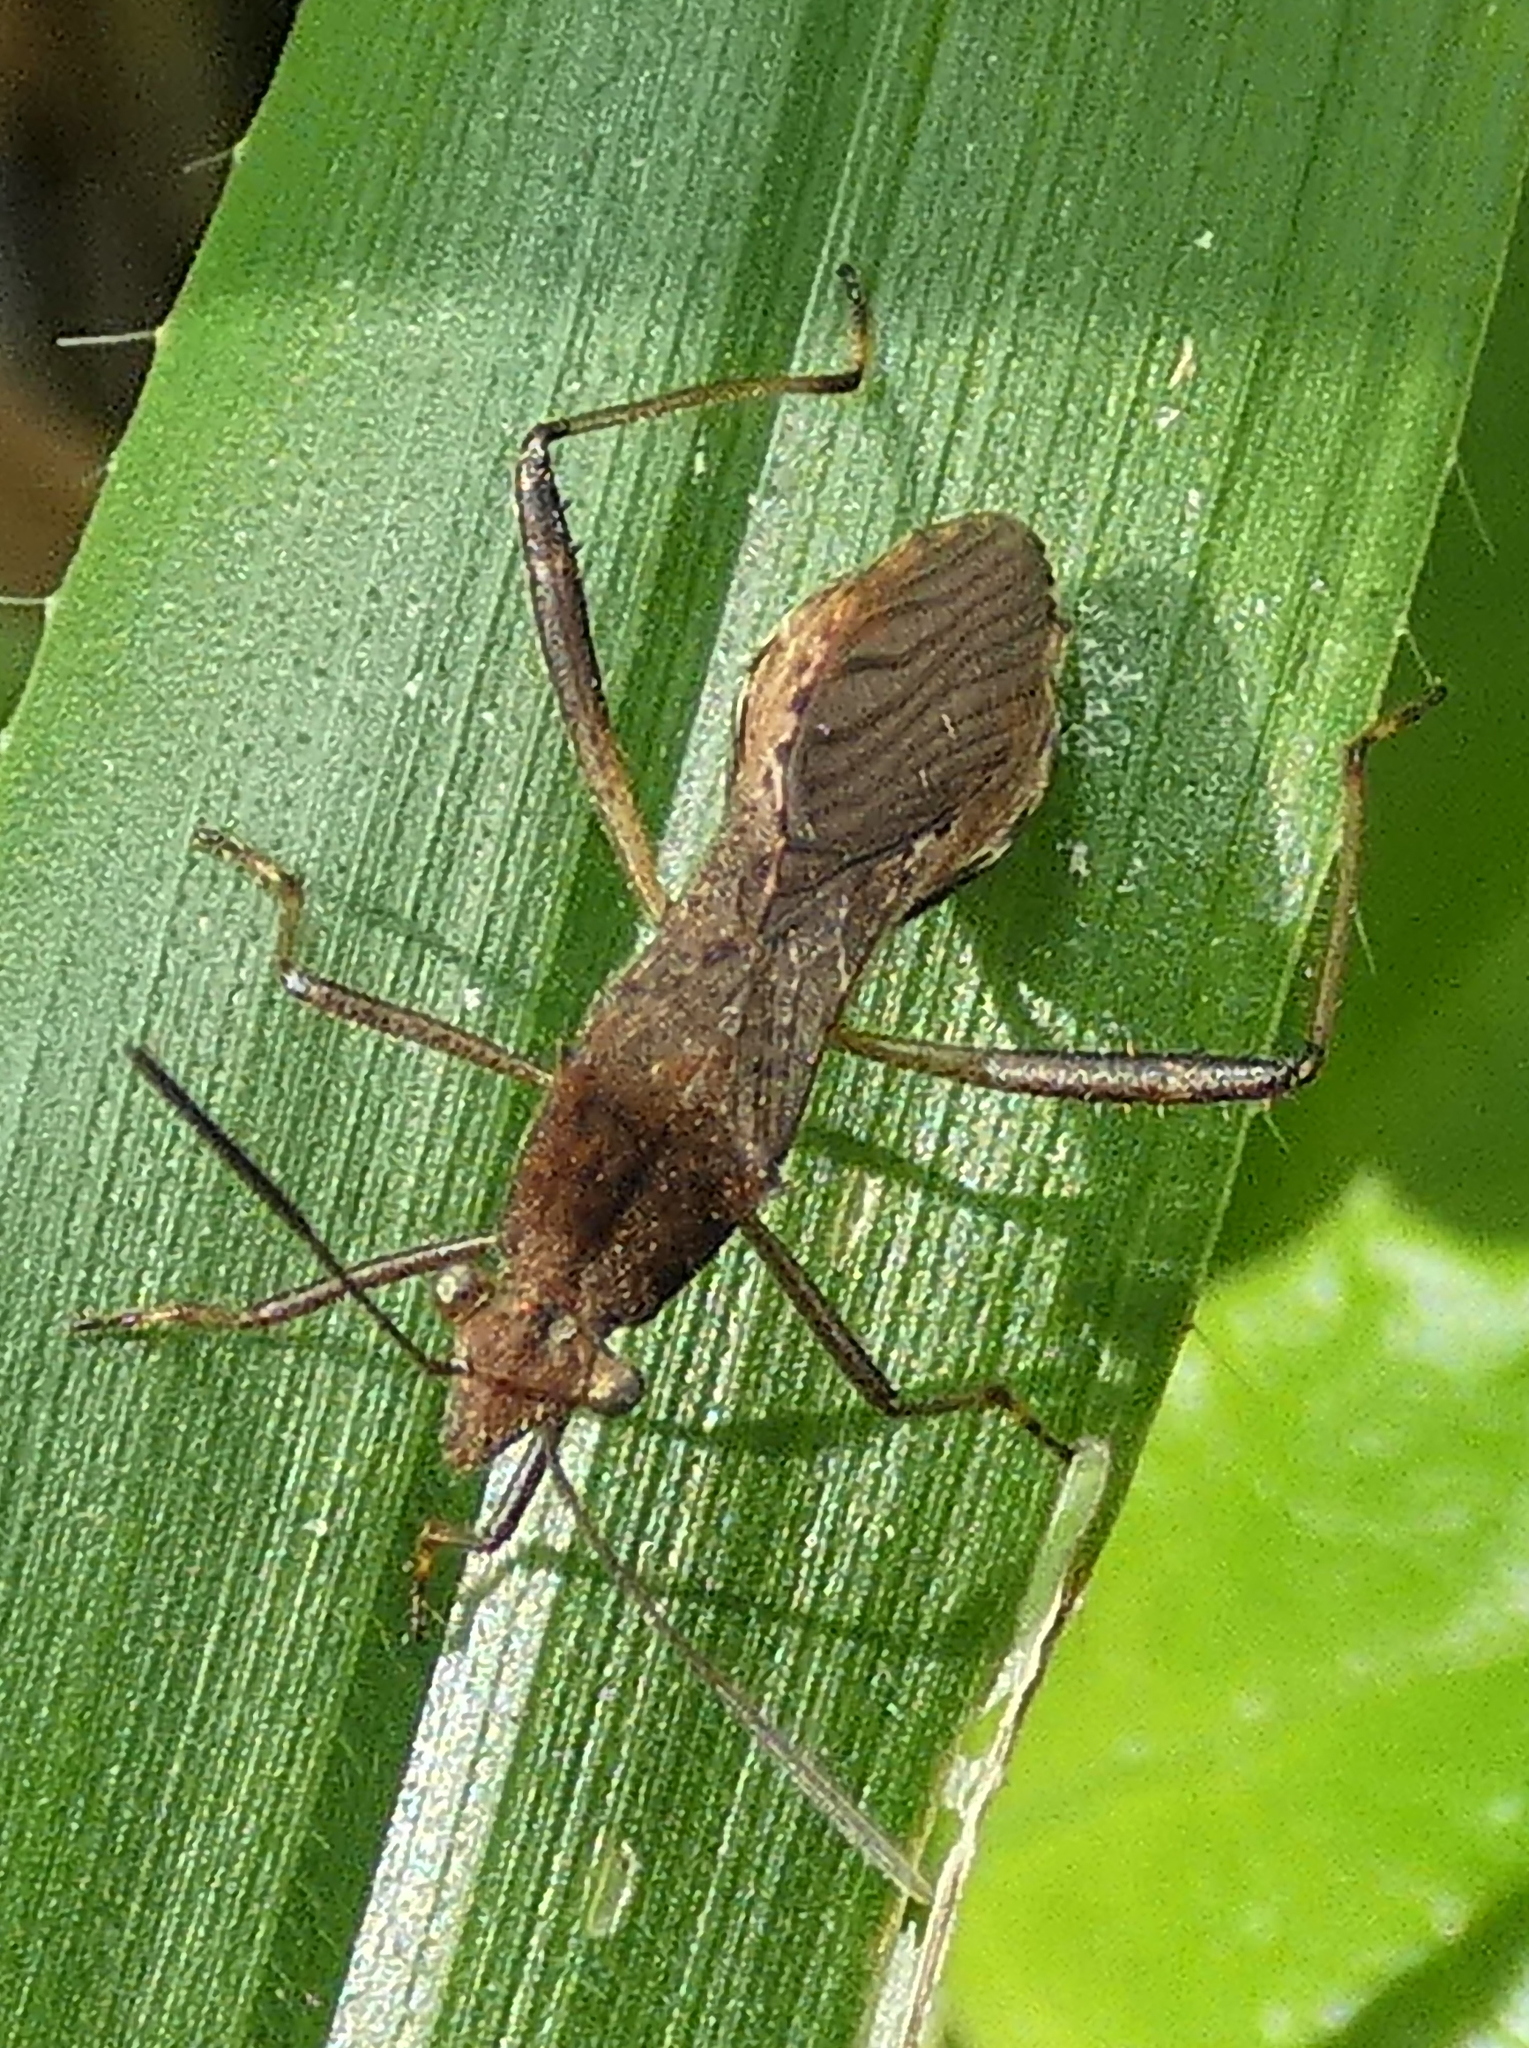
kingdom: Animalia
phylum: Arthropoda
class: Insecta
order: Hemiptera
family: Alydidae
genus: Neomegalotomus
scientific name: Neomegalotomus parvus
